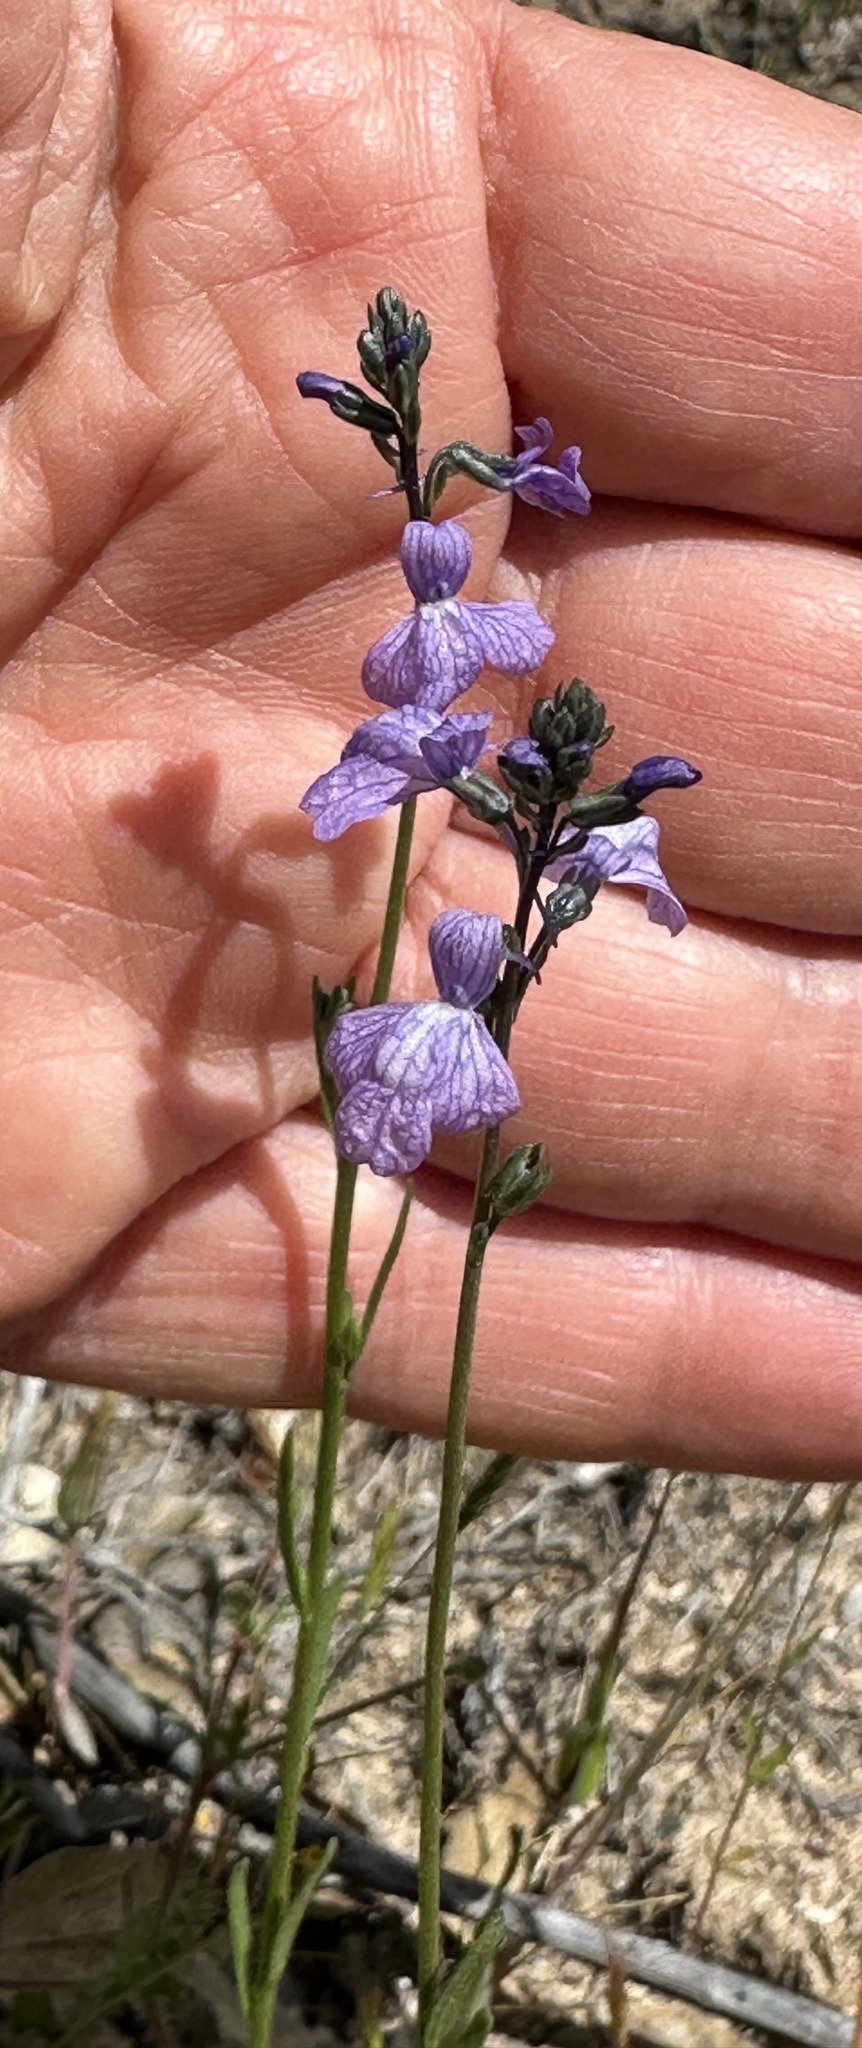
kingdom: Plantae
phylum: Tracheophyta
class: Magnoliopsida
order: Lamiales
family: Plantaginaceae
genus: Nuttallanthus
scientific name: Nuttallanthus texanus
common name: Texas toadflax
